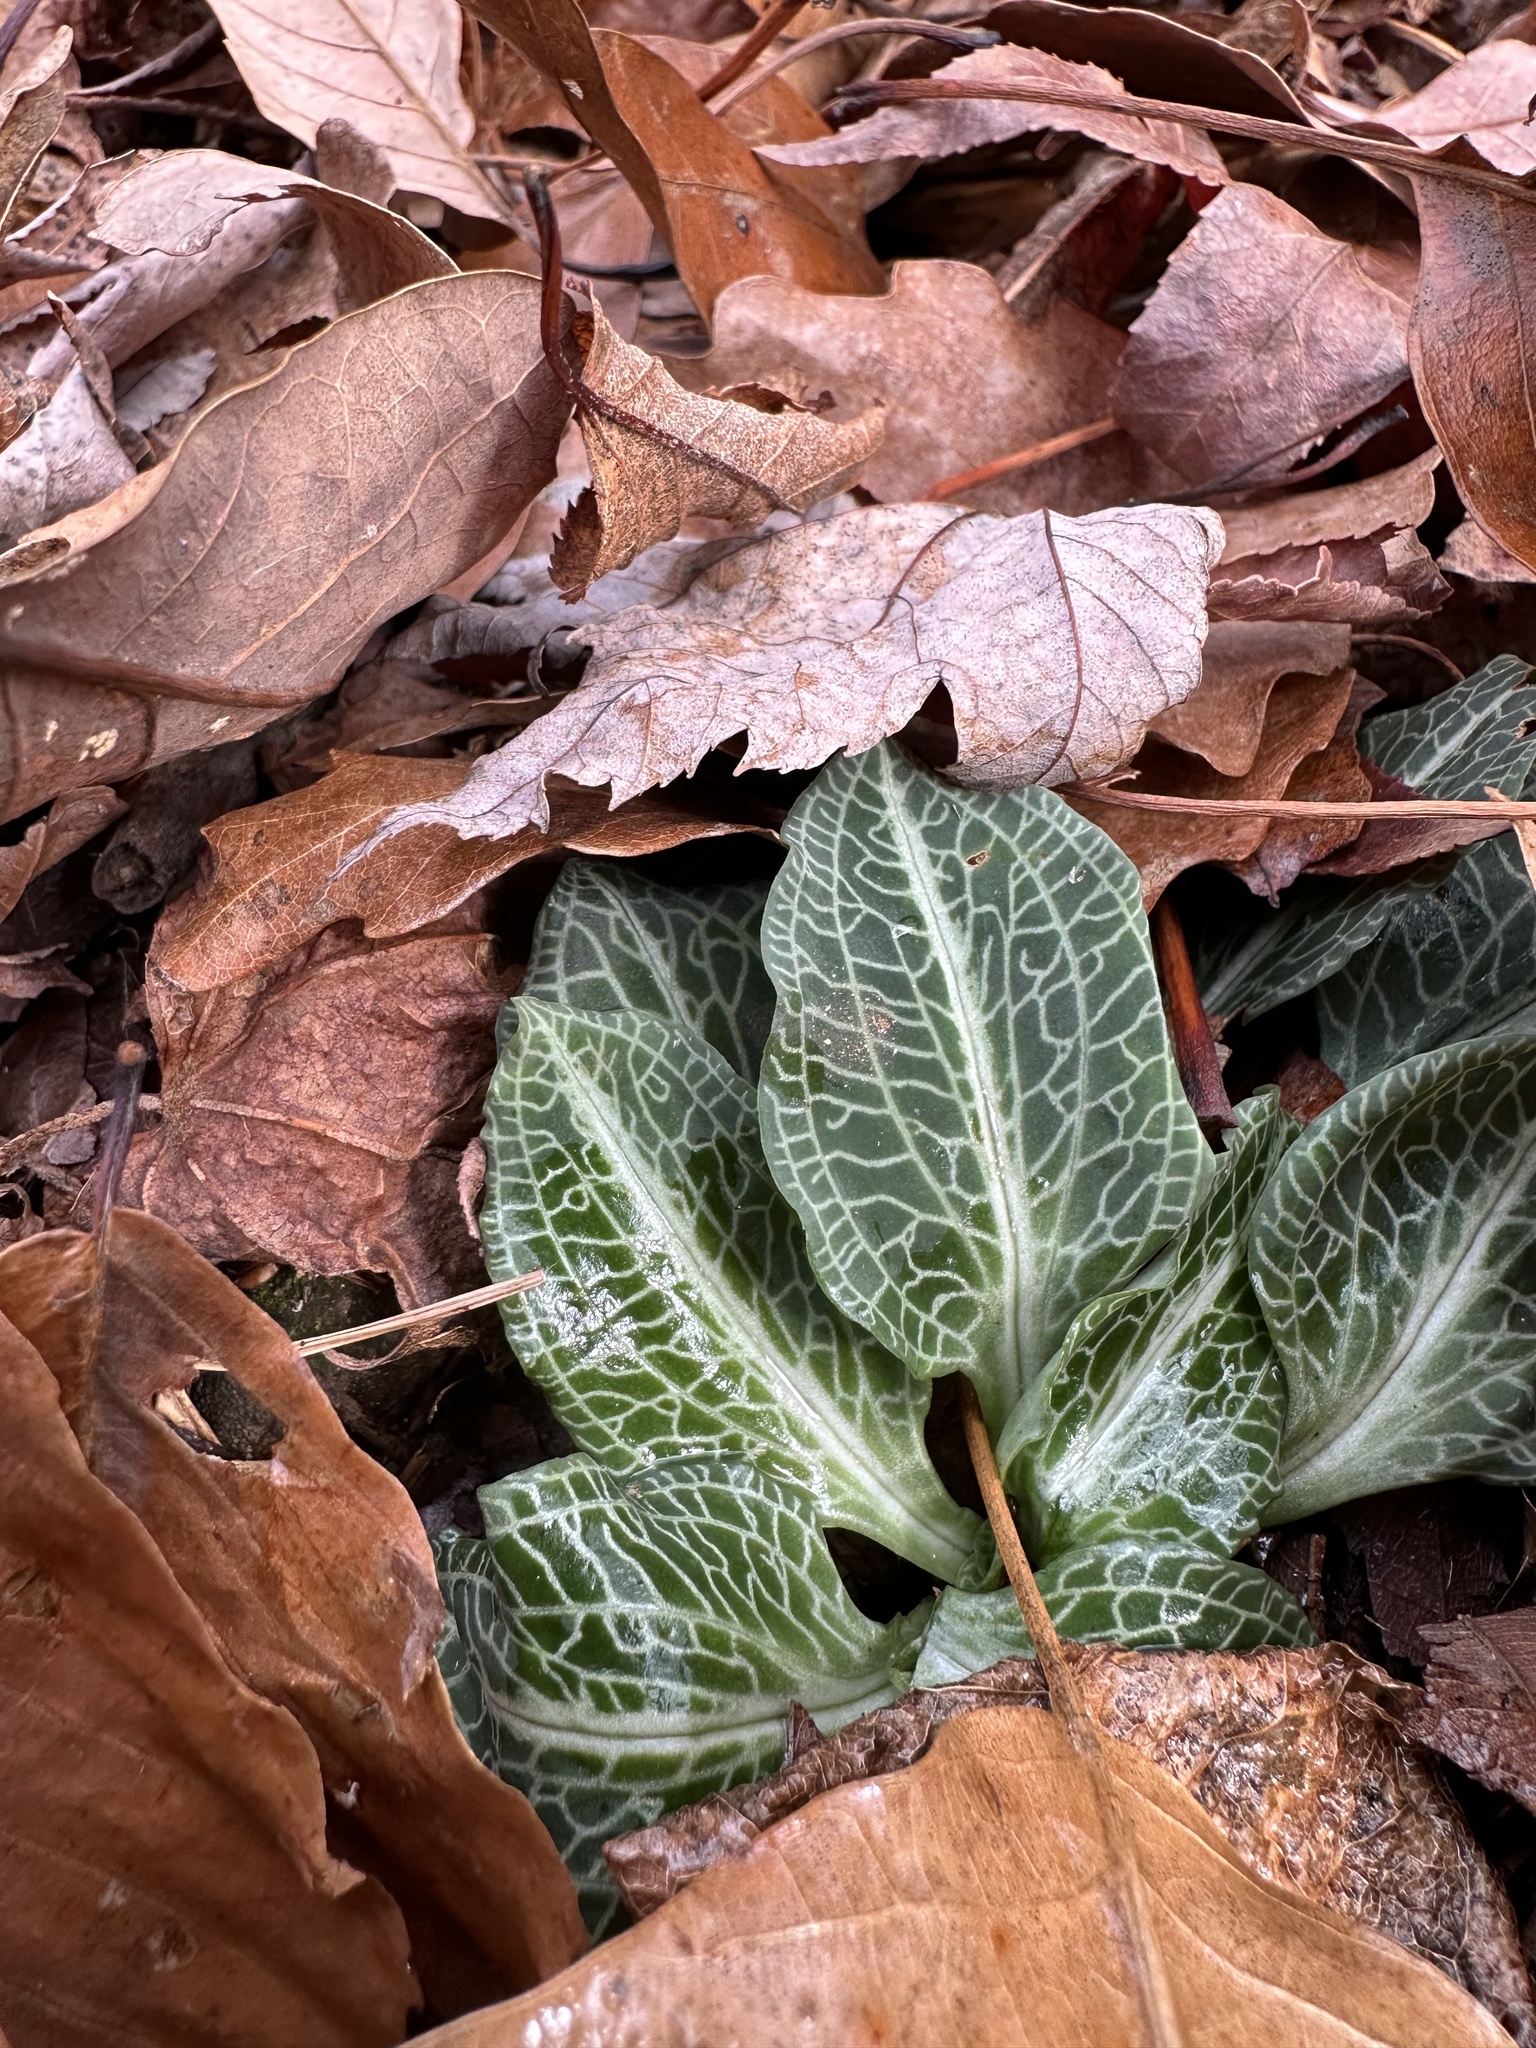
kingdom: Plantae
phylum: Tracheophyta
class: Liliopsida
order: Asparagales
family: Orchidaceae
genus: Goodyera
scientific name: Goodyera pubescens
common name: Downy rattlesnake-plantain
